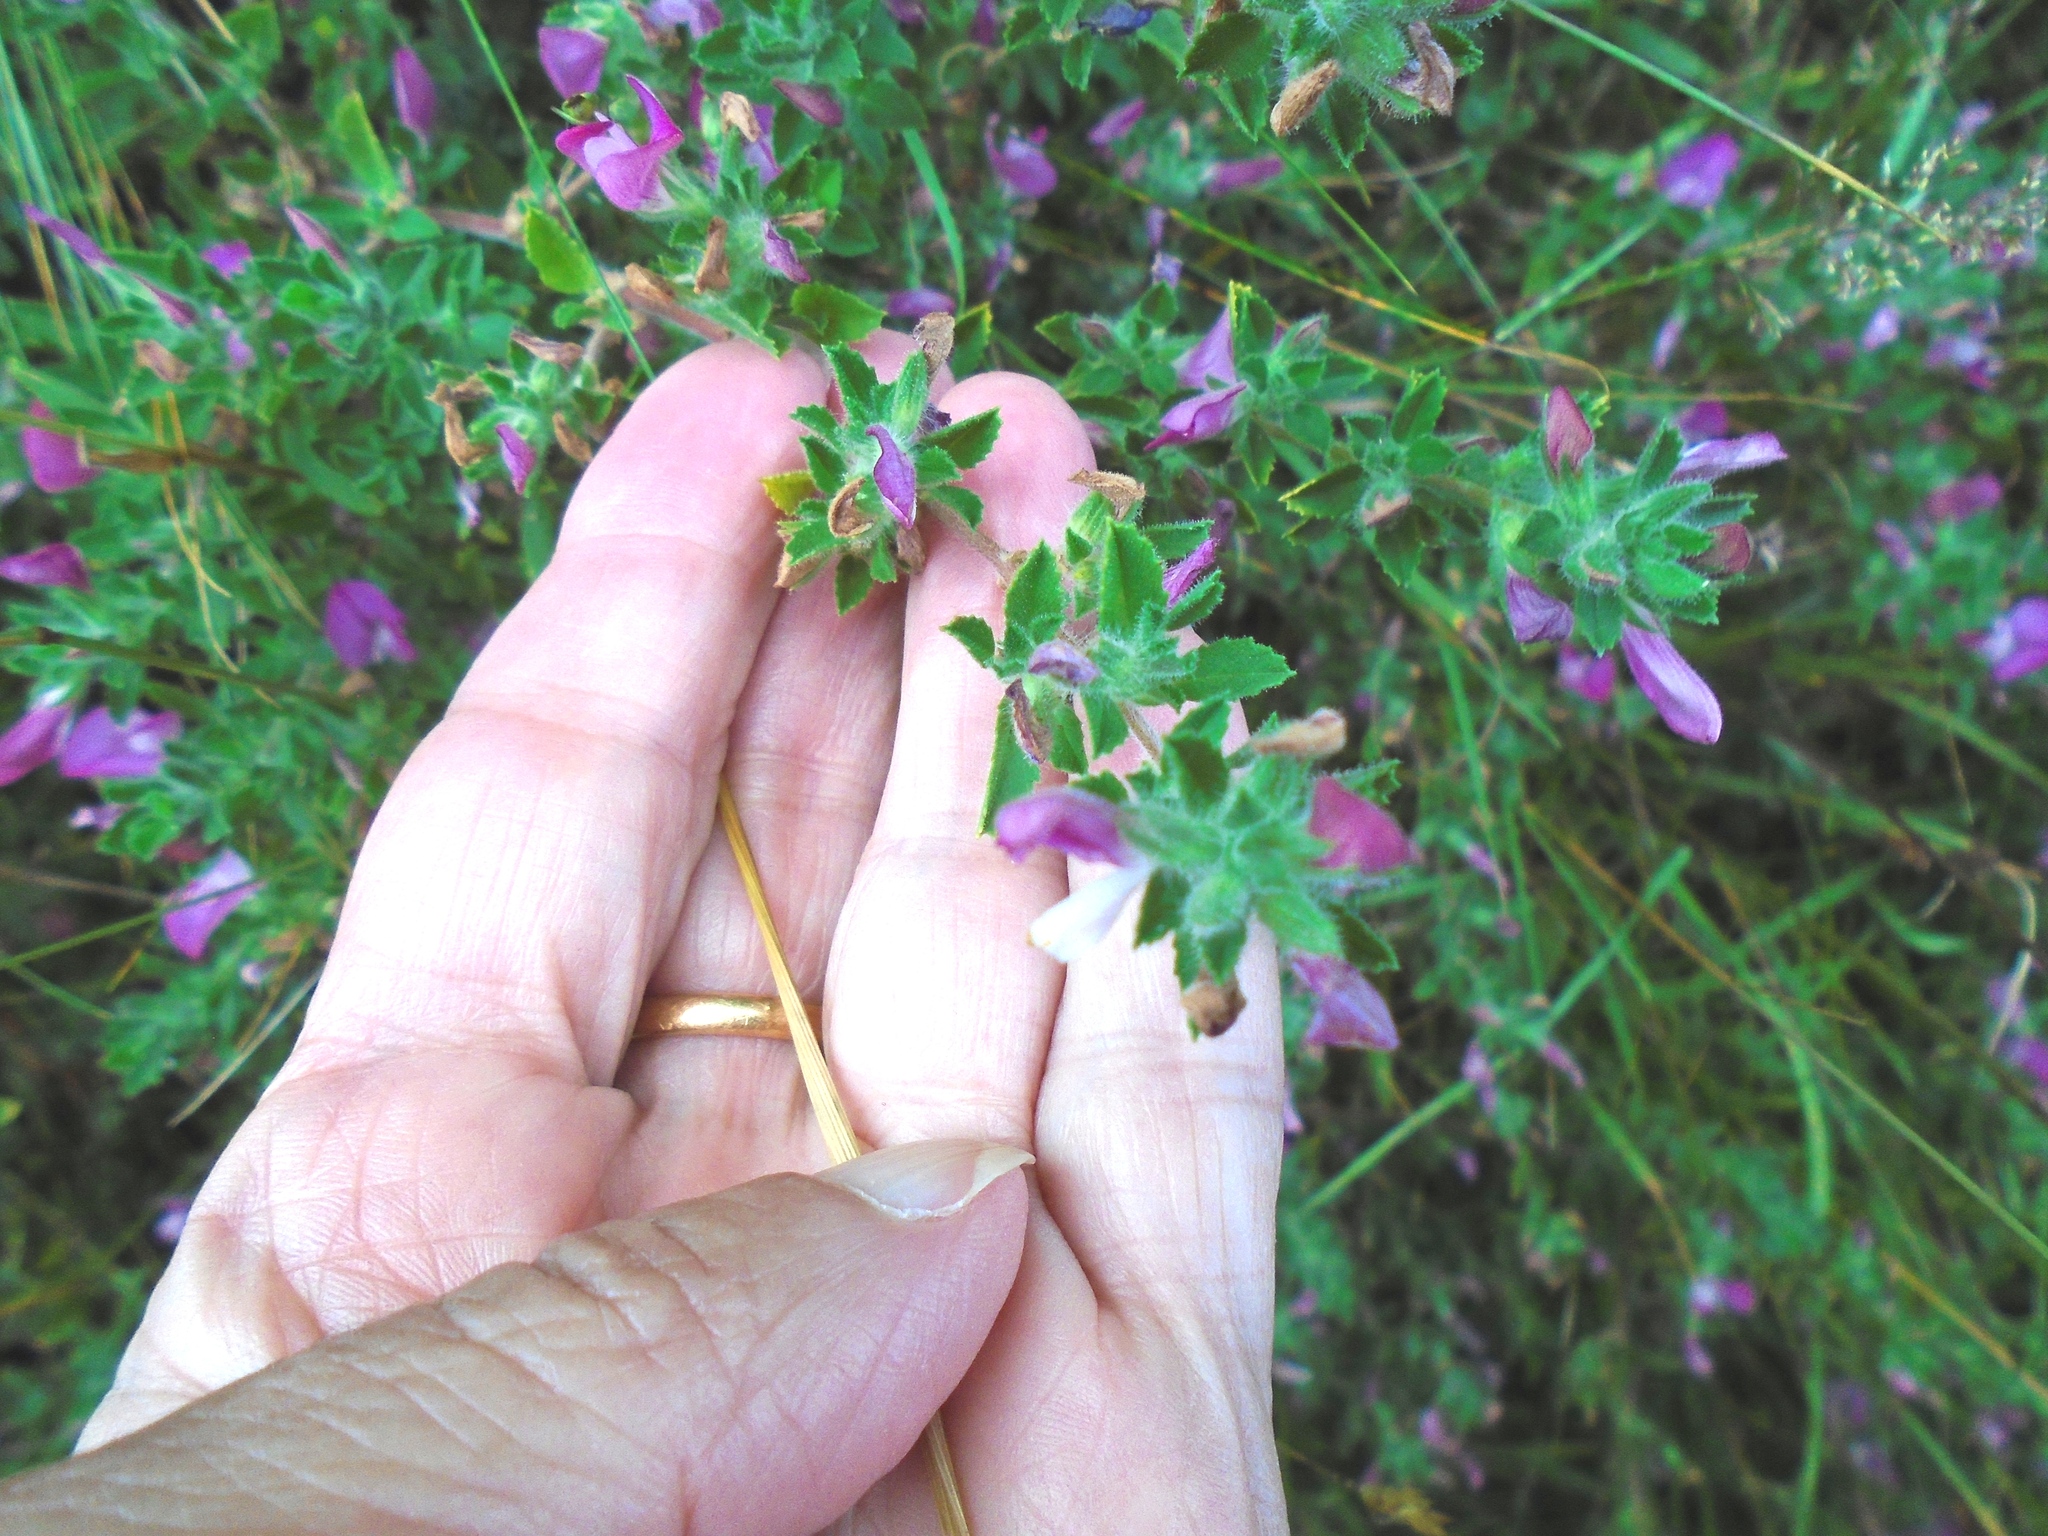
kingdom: Plantae
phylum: Tracheophyta
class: Magnoliopsida
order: Fabales
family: Fabaceae
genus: Ononis
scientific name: Ononis spinosa
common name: Spiny restharrow
